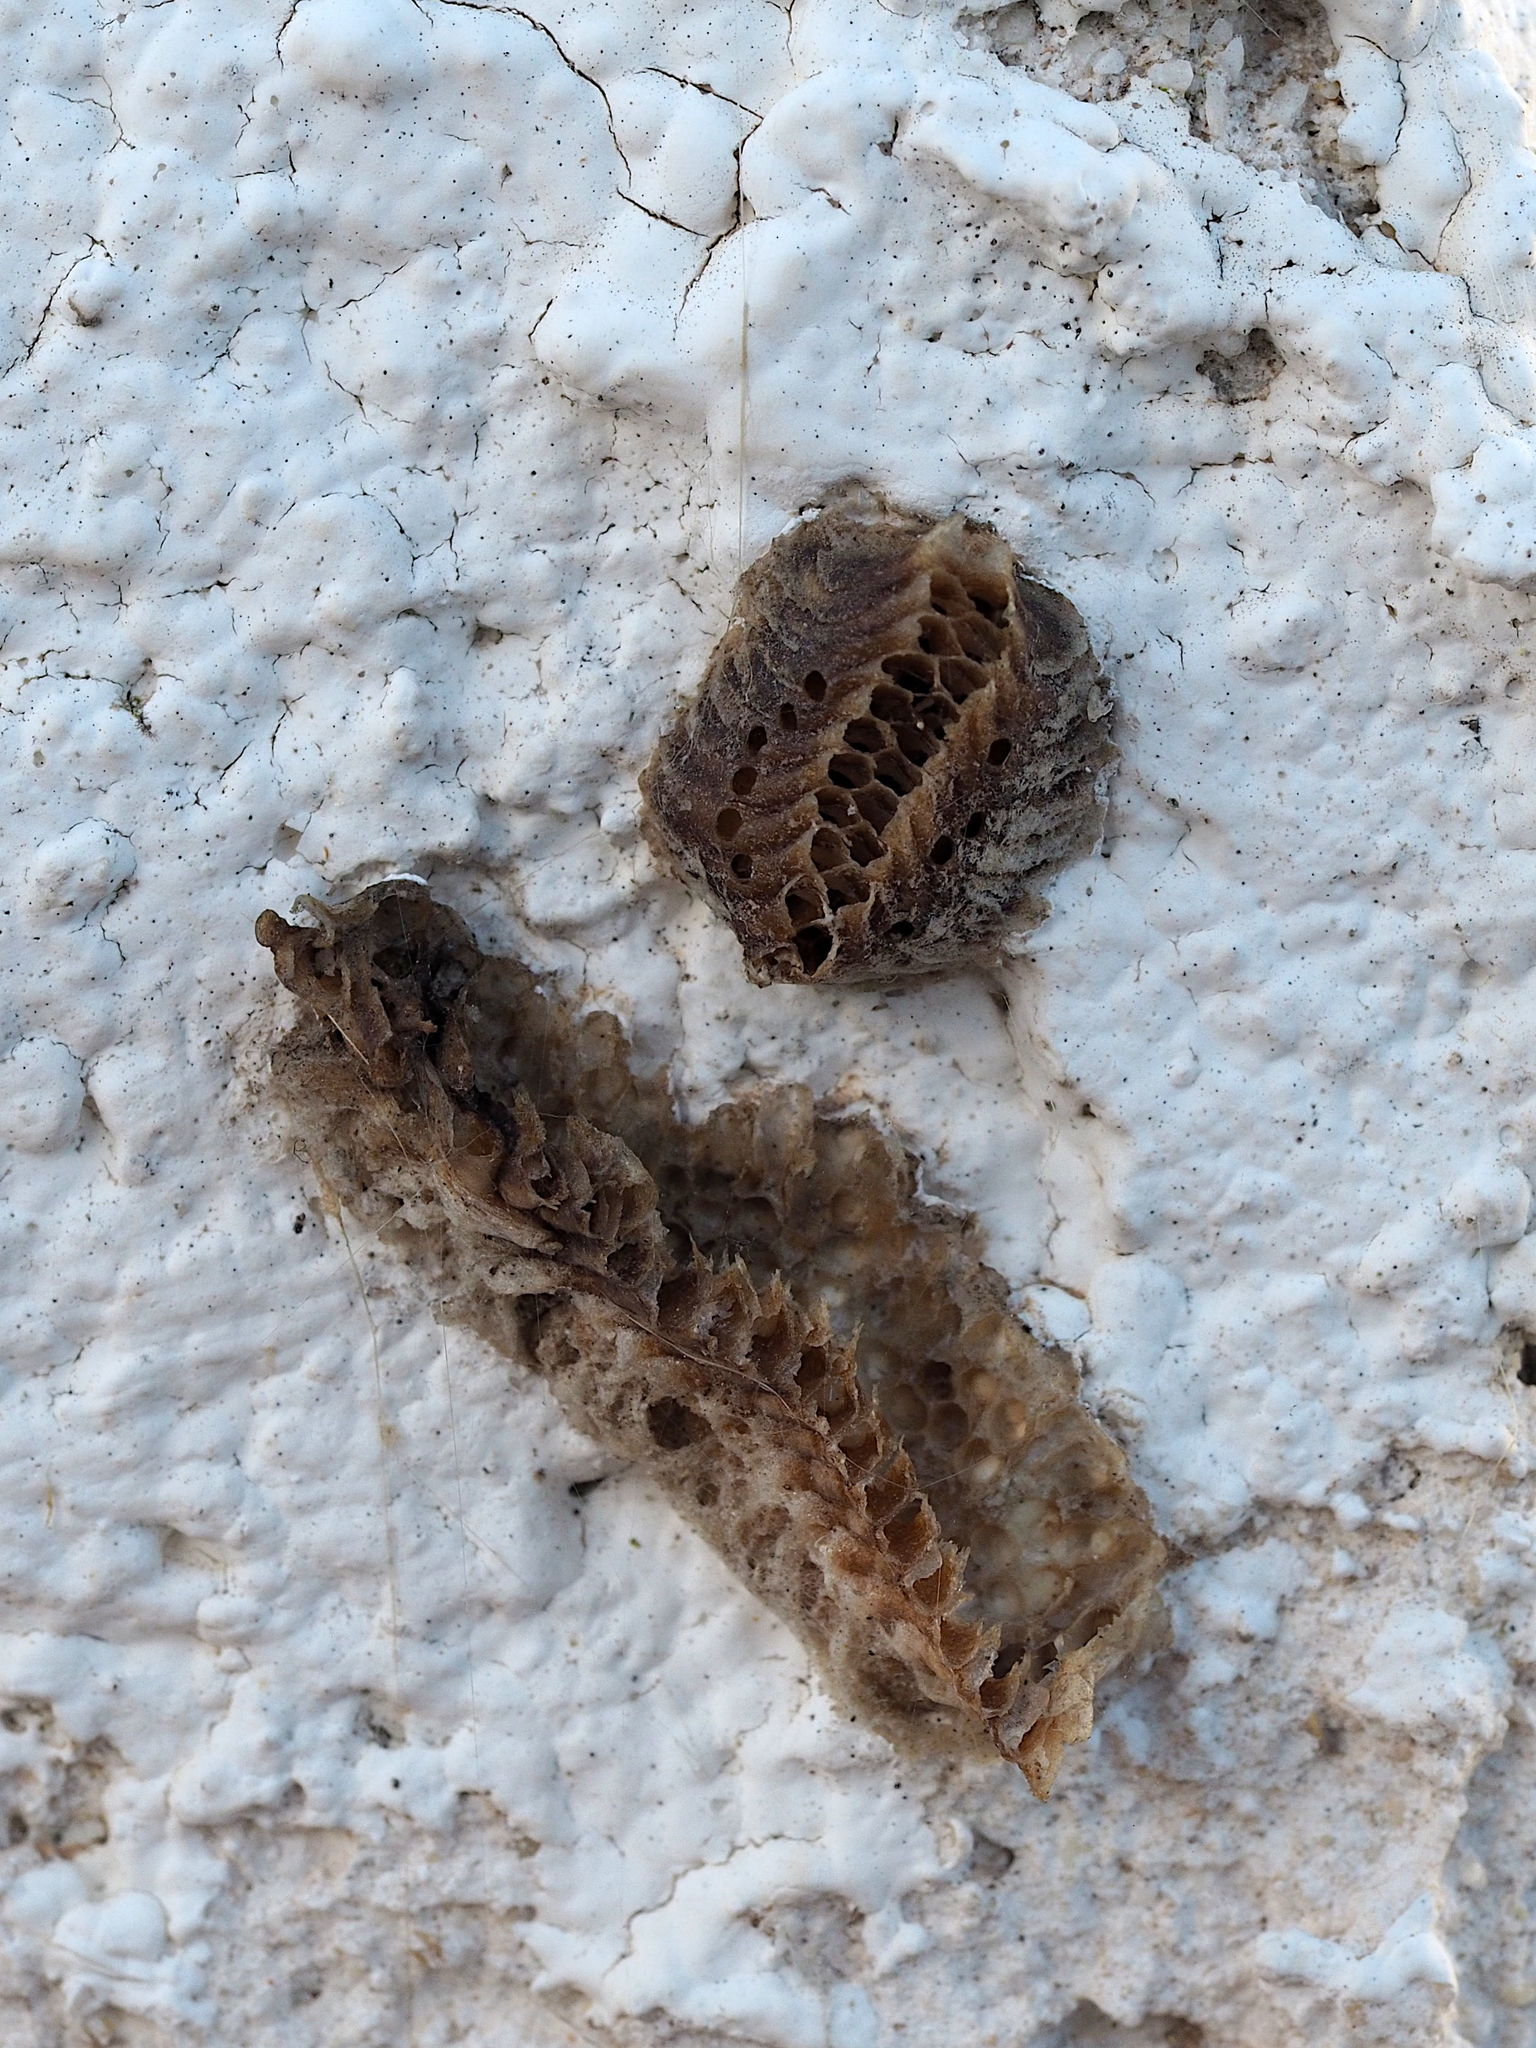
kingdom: Animalia
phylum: Arthropoda
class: Insecta
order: Mantodea
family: Eremiaphilidae
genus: Iris
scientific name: Iris oratoria
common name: Mediterranean mantis
